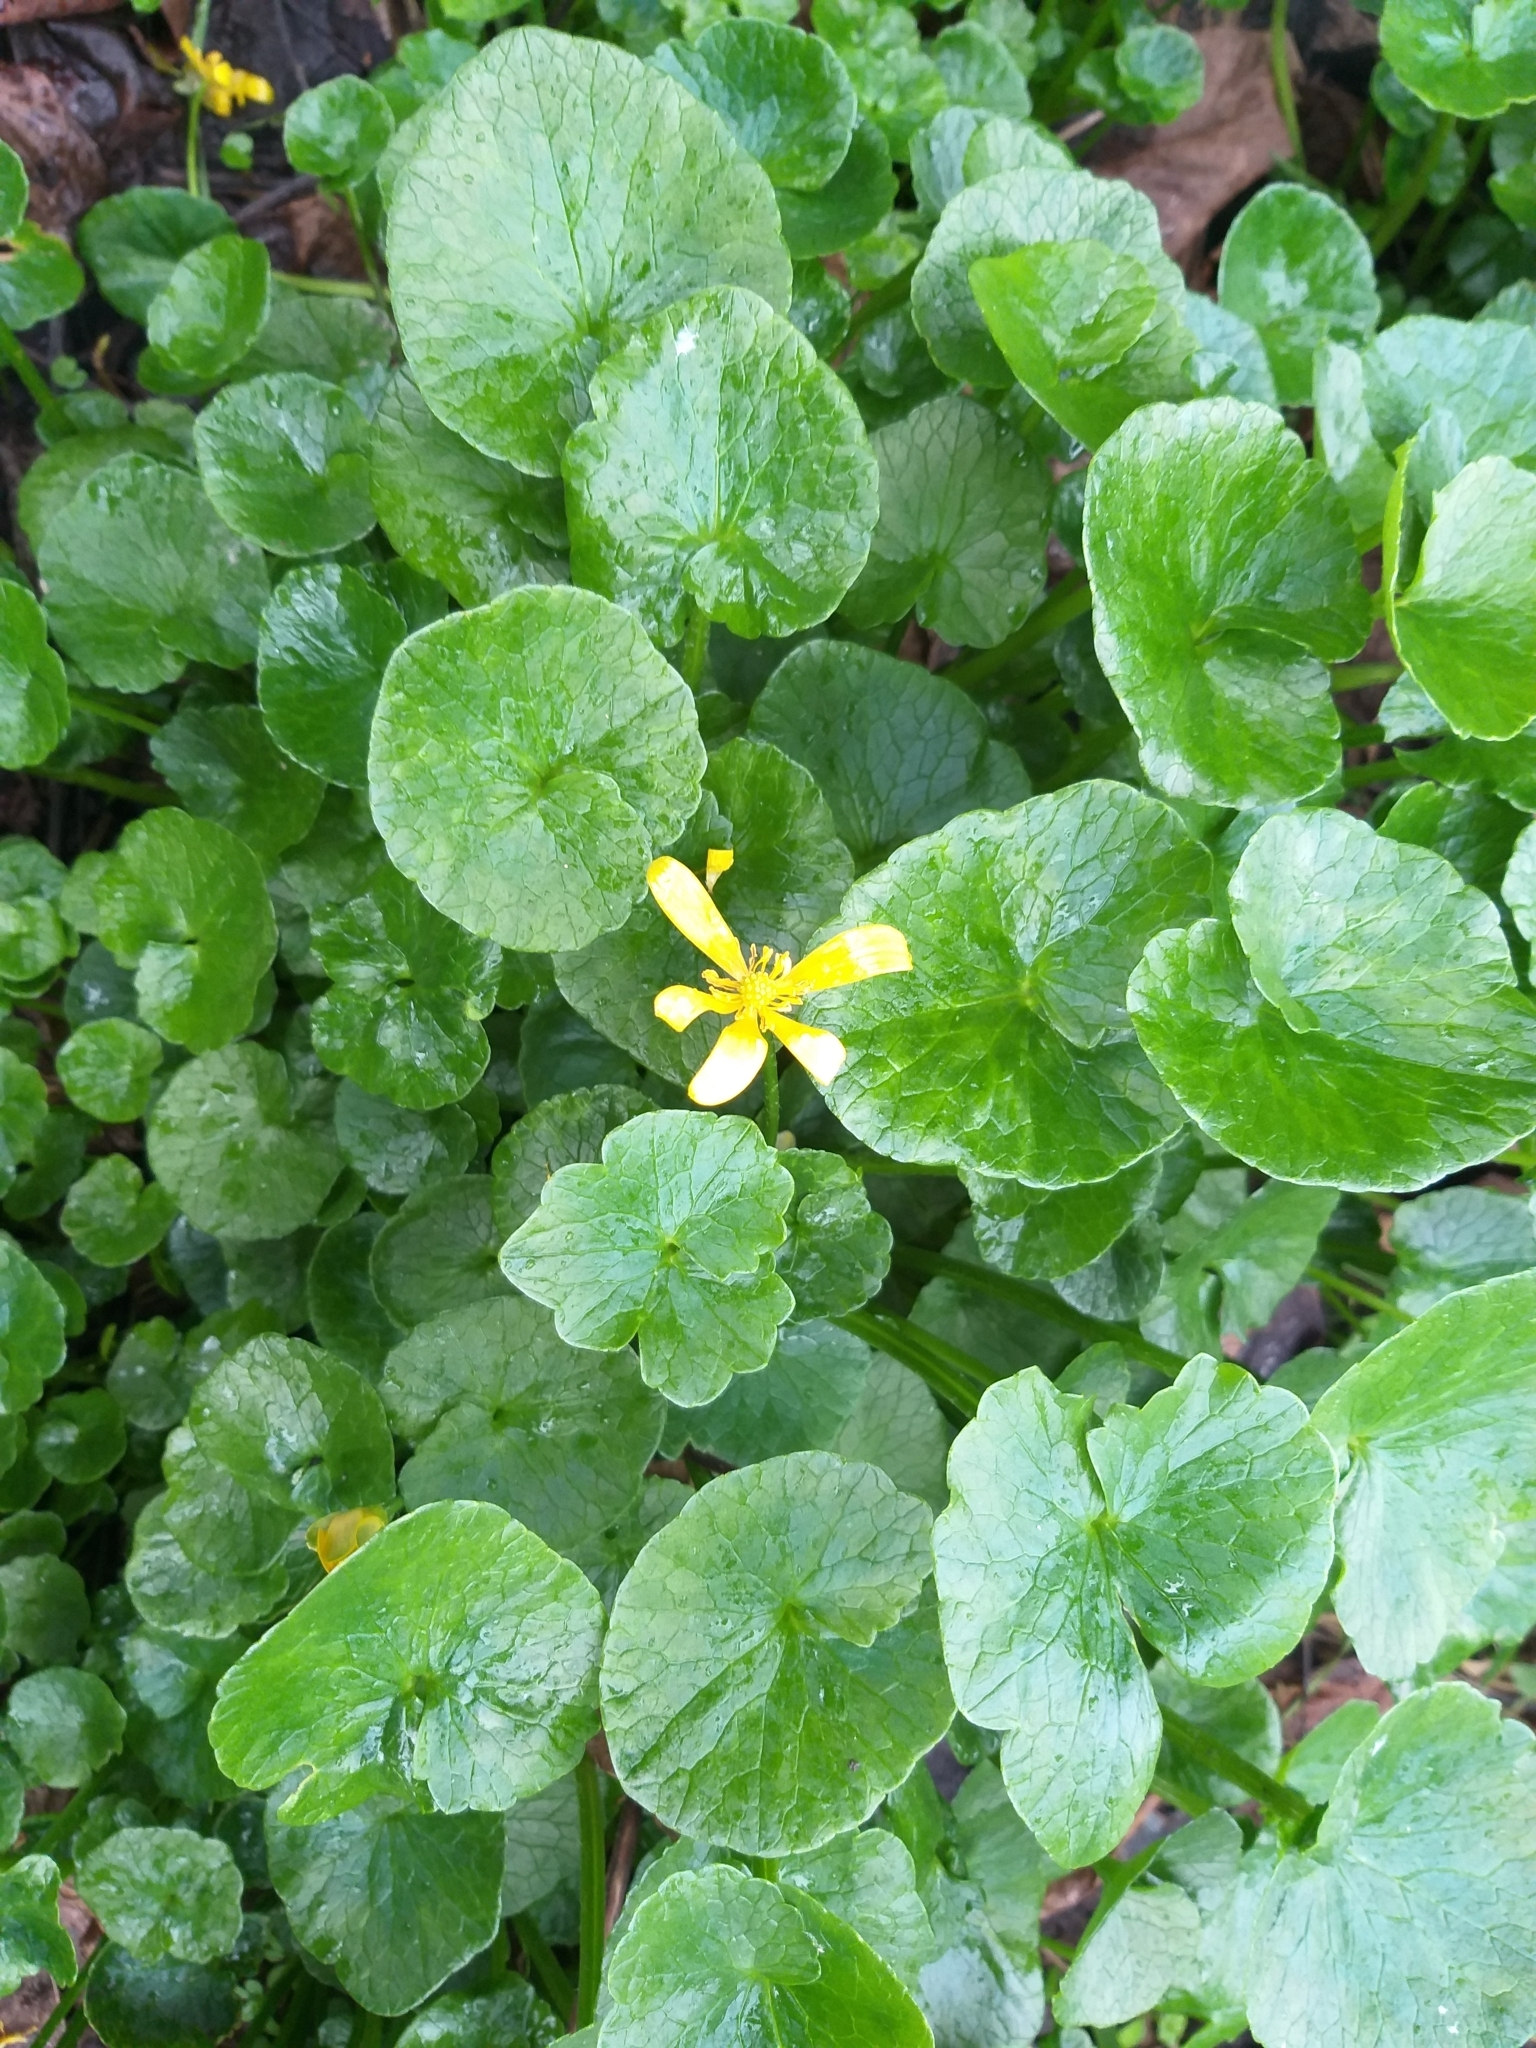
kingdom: Plantae
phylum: Tracheophyta
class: Magnoliopsida
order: Ranunculales
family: Ranunculaceae
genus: Ficaria
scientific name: Ficaria verna
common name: Lesser celandine
